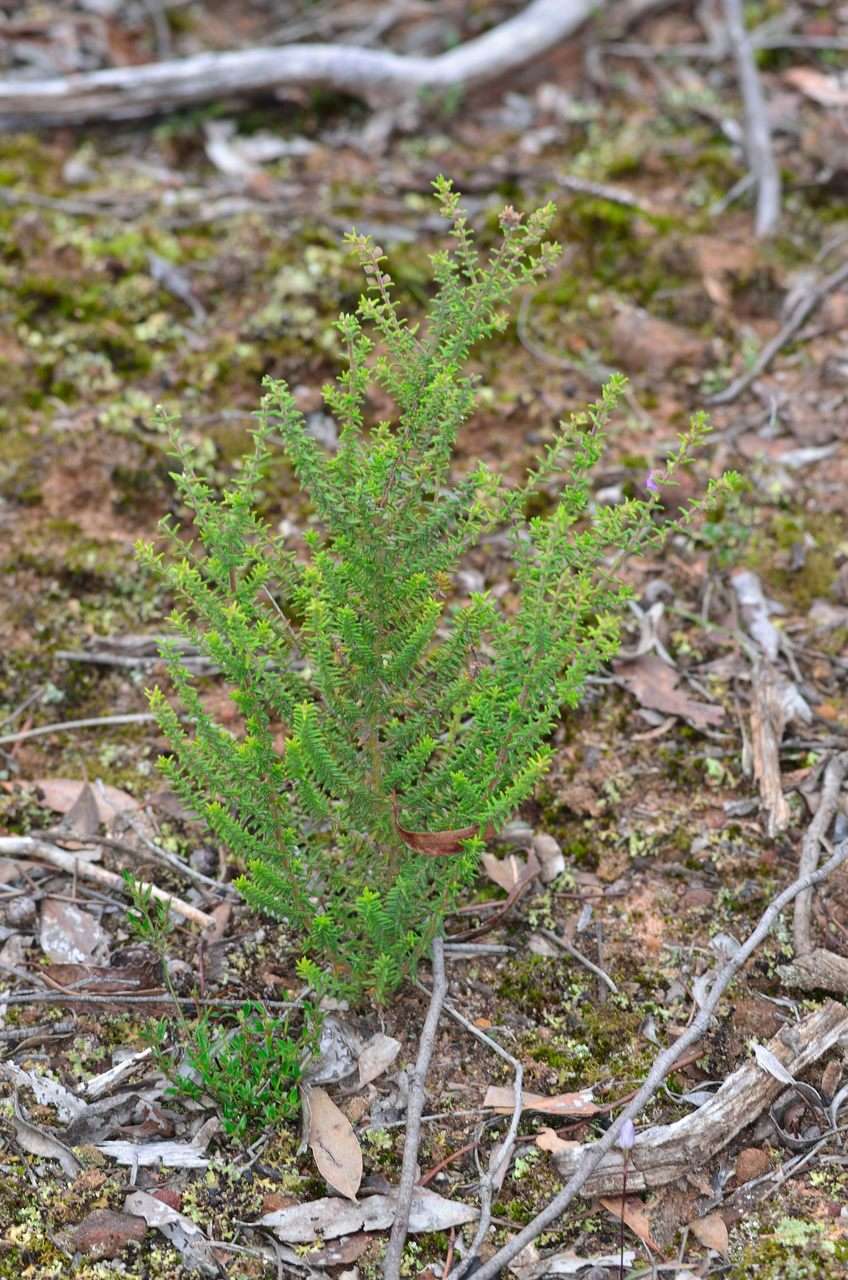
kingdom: Plantae
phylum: Tracheophyta
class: Magnoliopsida
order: Lamiales
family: Lamiaceae
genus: Prostanthera
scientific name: Prostanthera decussata
